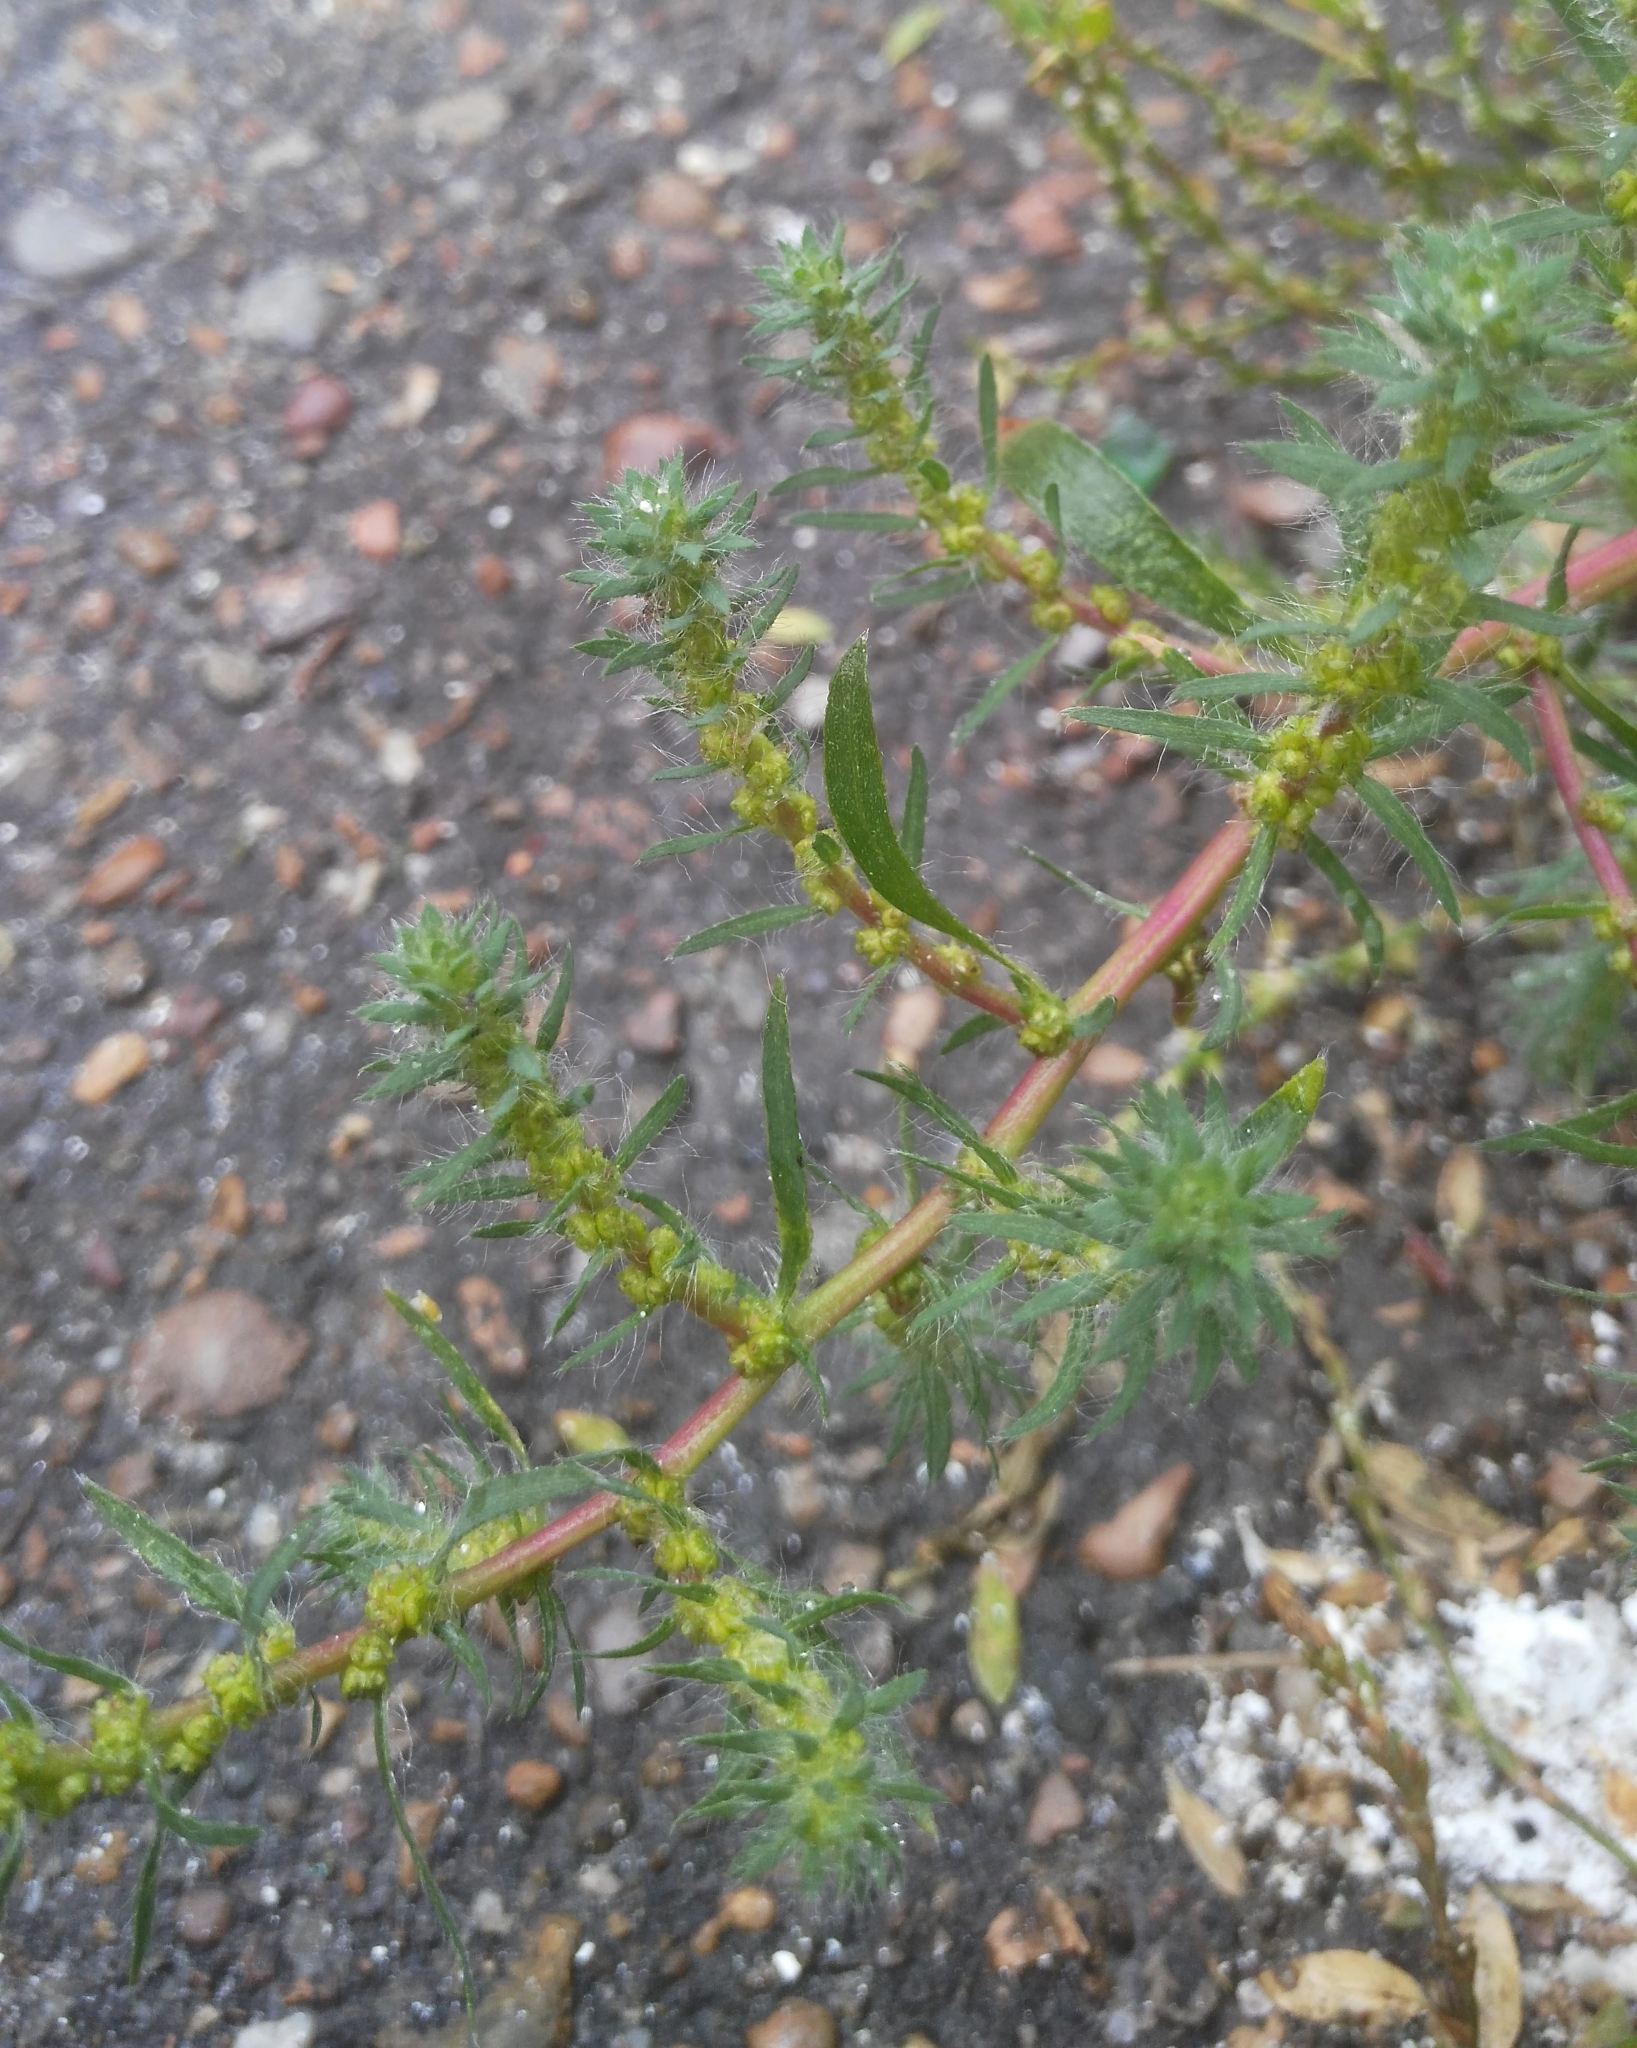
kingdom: Plantae
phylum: Tracheophyta
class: Magnoliopsida
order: Caryophyllales
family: Amaranthaceae
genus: Bassia
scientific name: Bassia scoparia
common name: Belvedere
